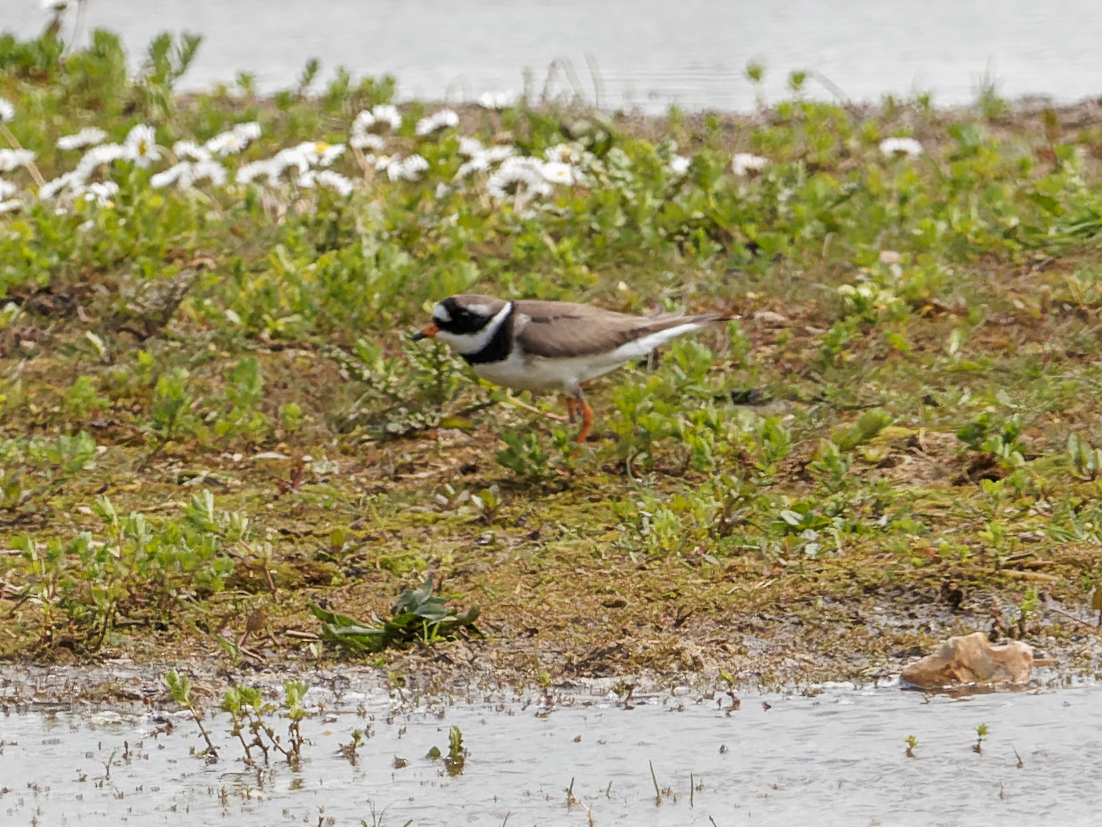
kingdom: Animalia
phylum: Chordata
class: Aves
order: Charadriiformes
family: Charadriidae
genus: Charadrius
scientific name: Charadrius hiaticula
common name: Common ringed plover
